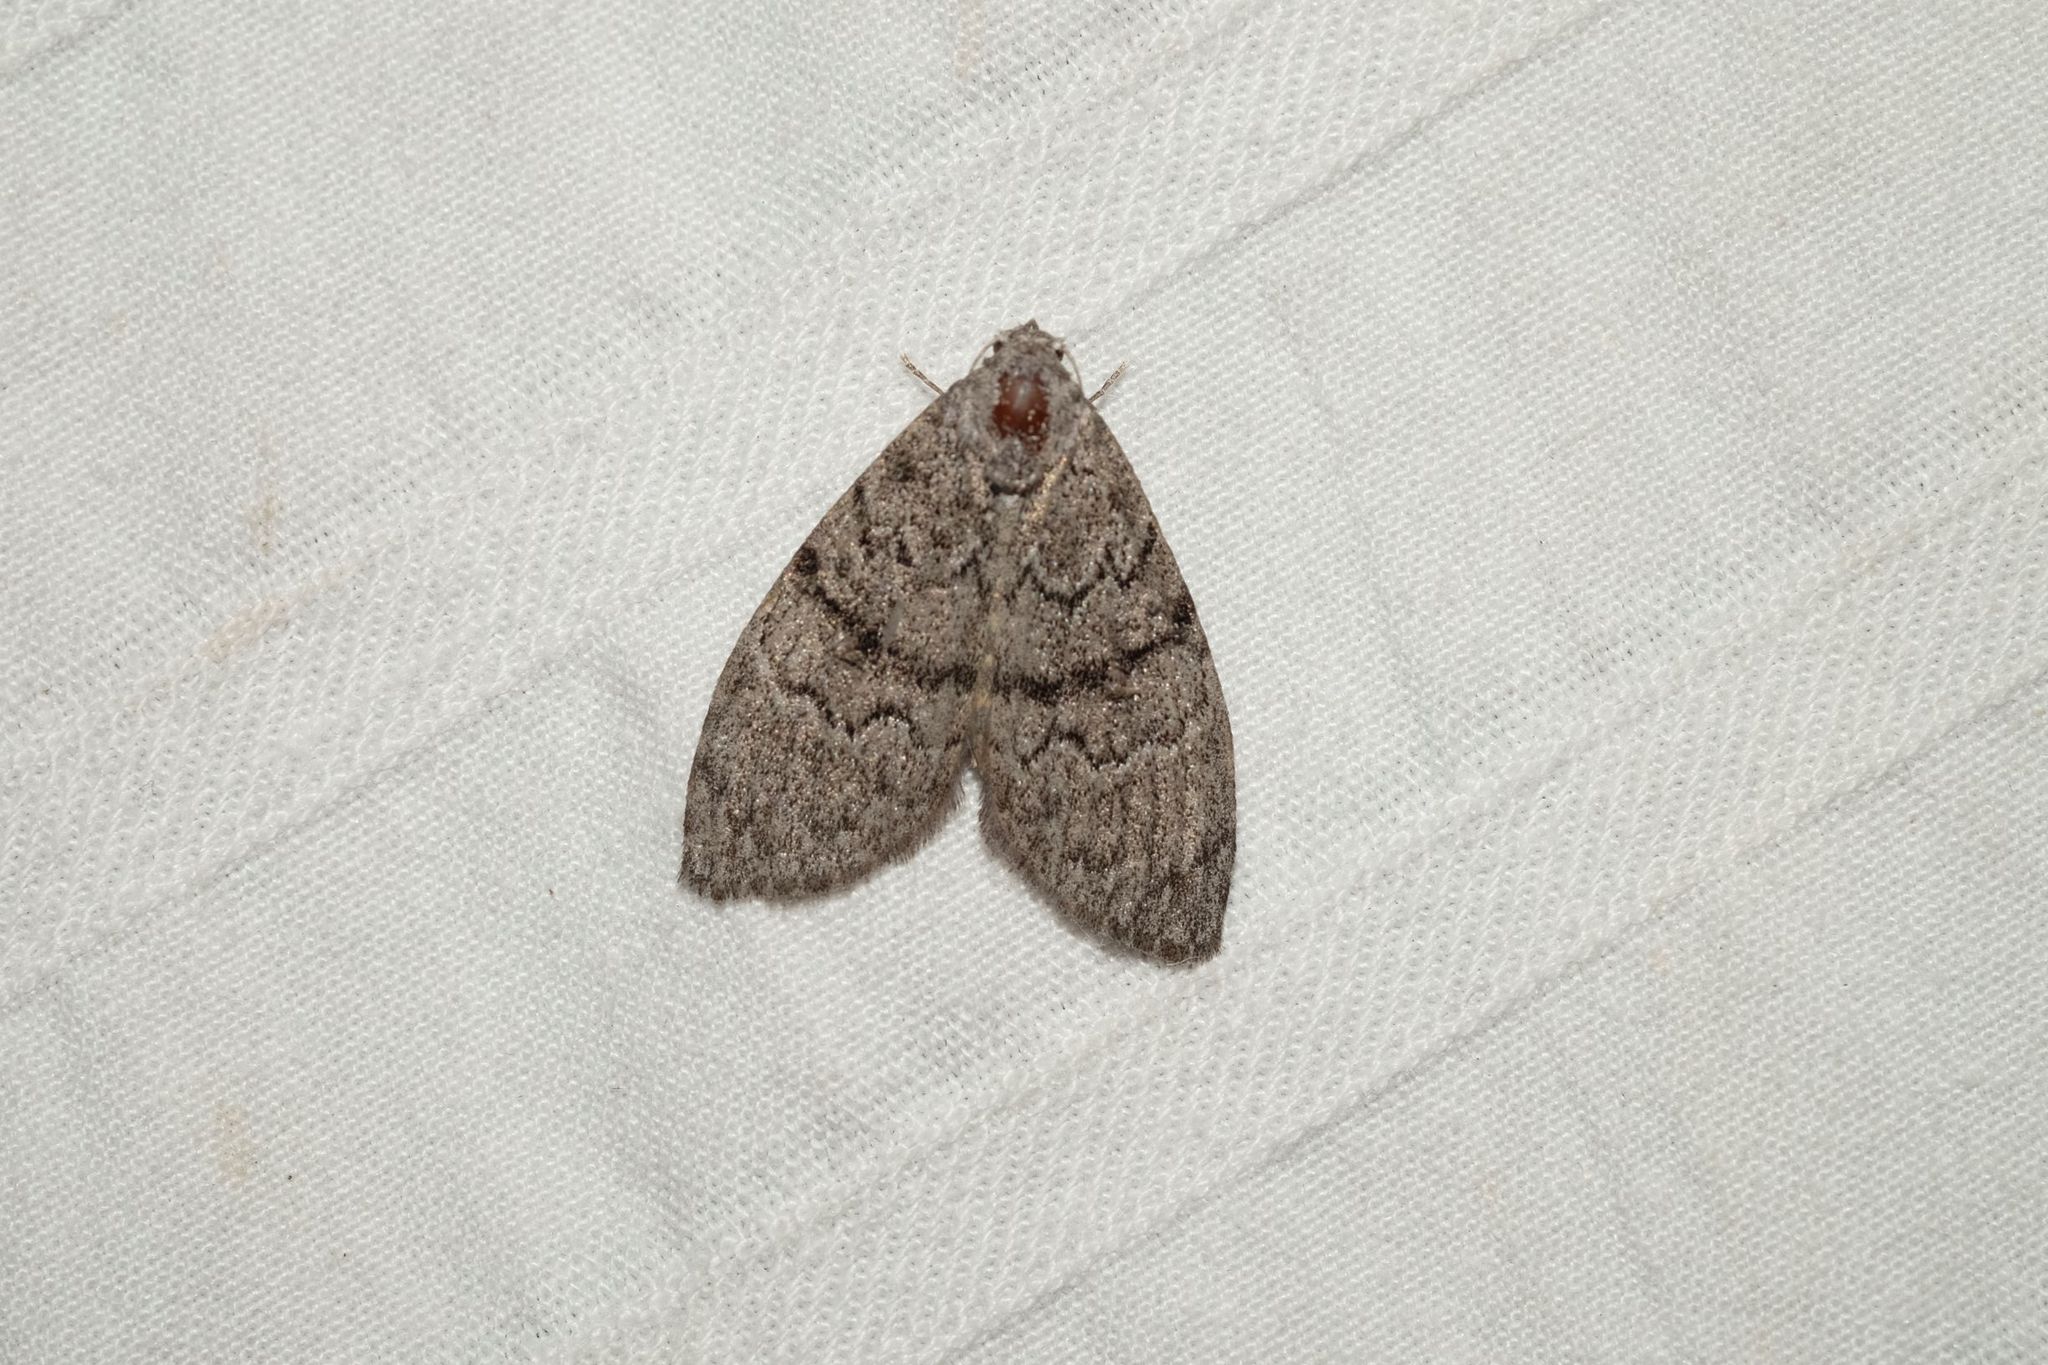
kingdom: Animalia
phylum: Arthropoda
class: Insecta
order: Lepidoptera
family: Nolidae
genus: Uraba
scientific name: Uraba lugens
